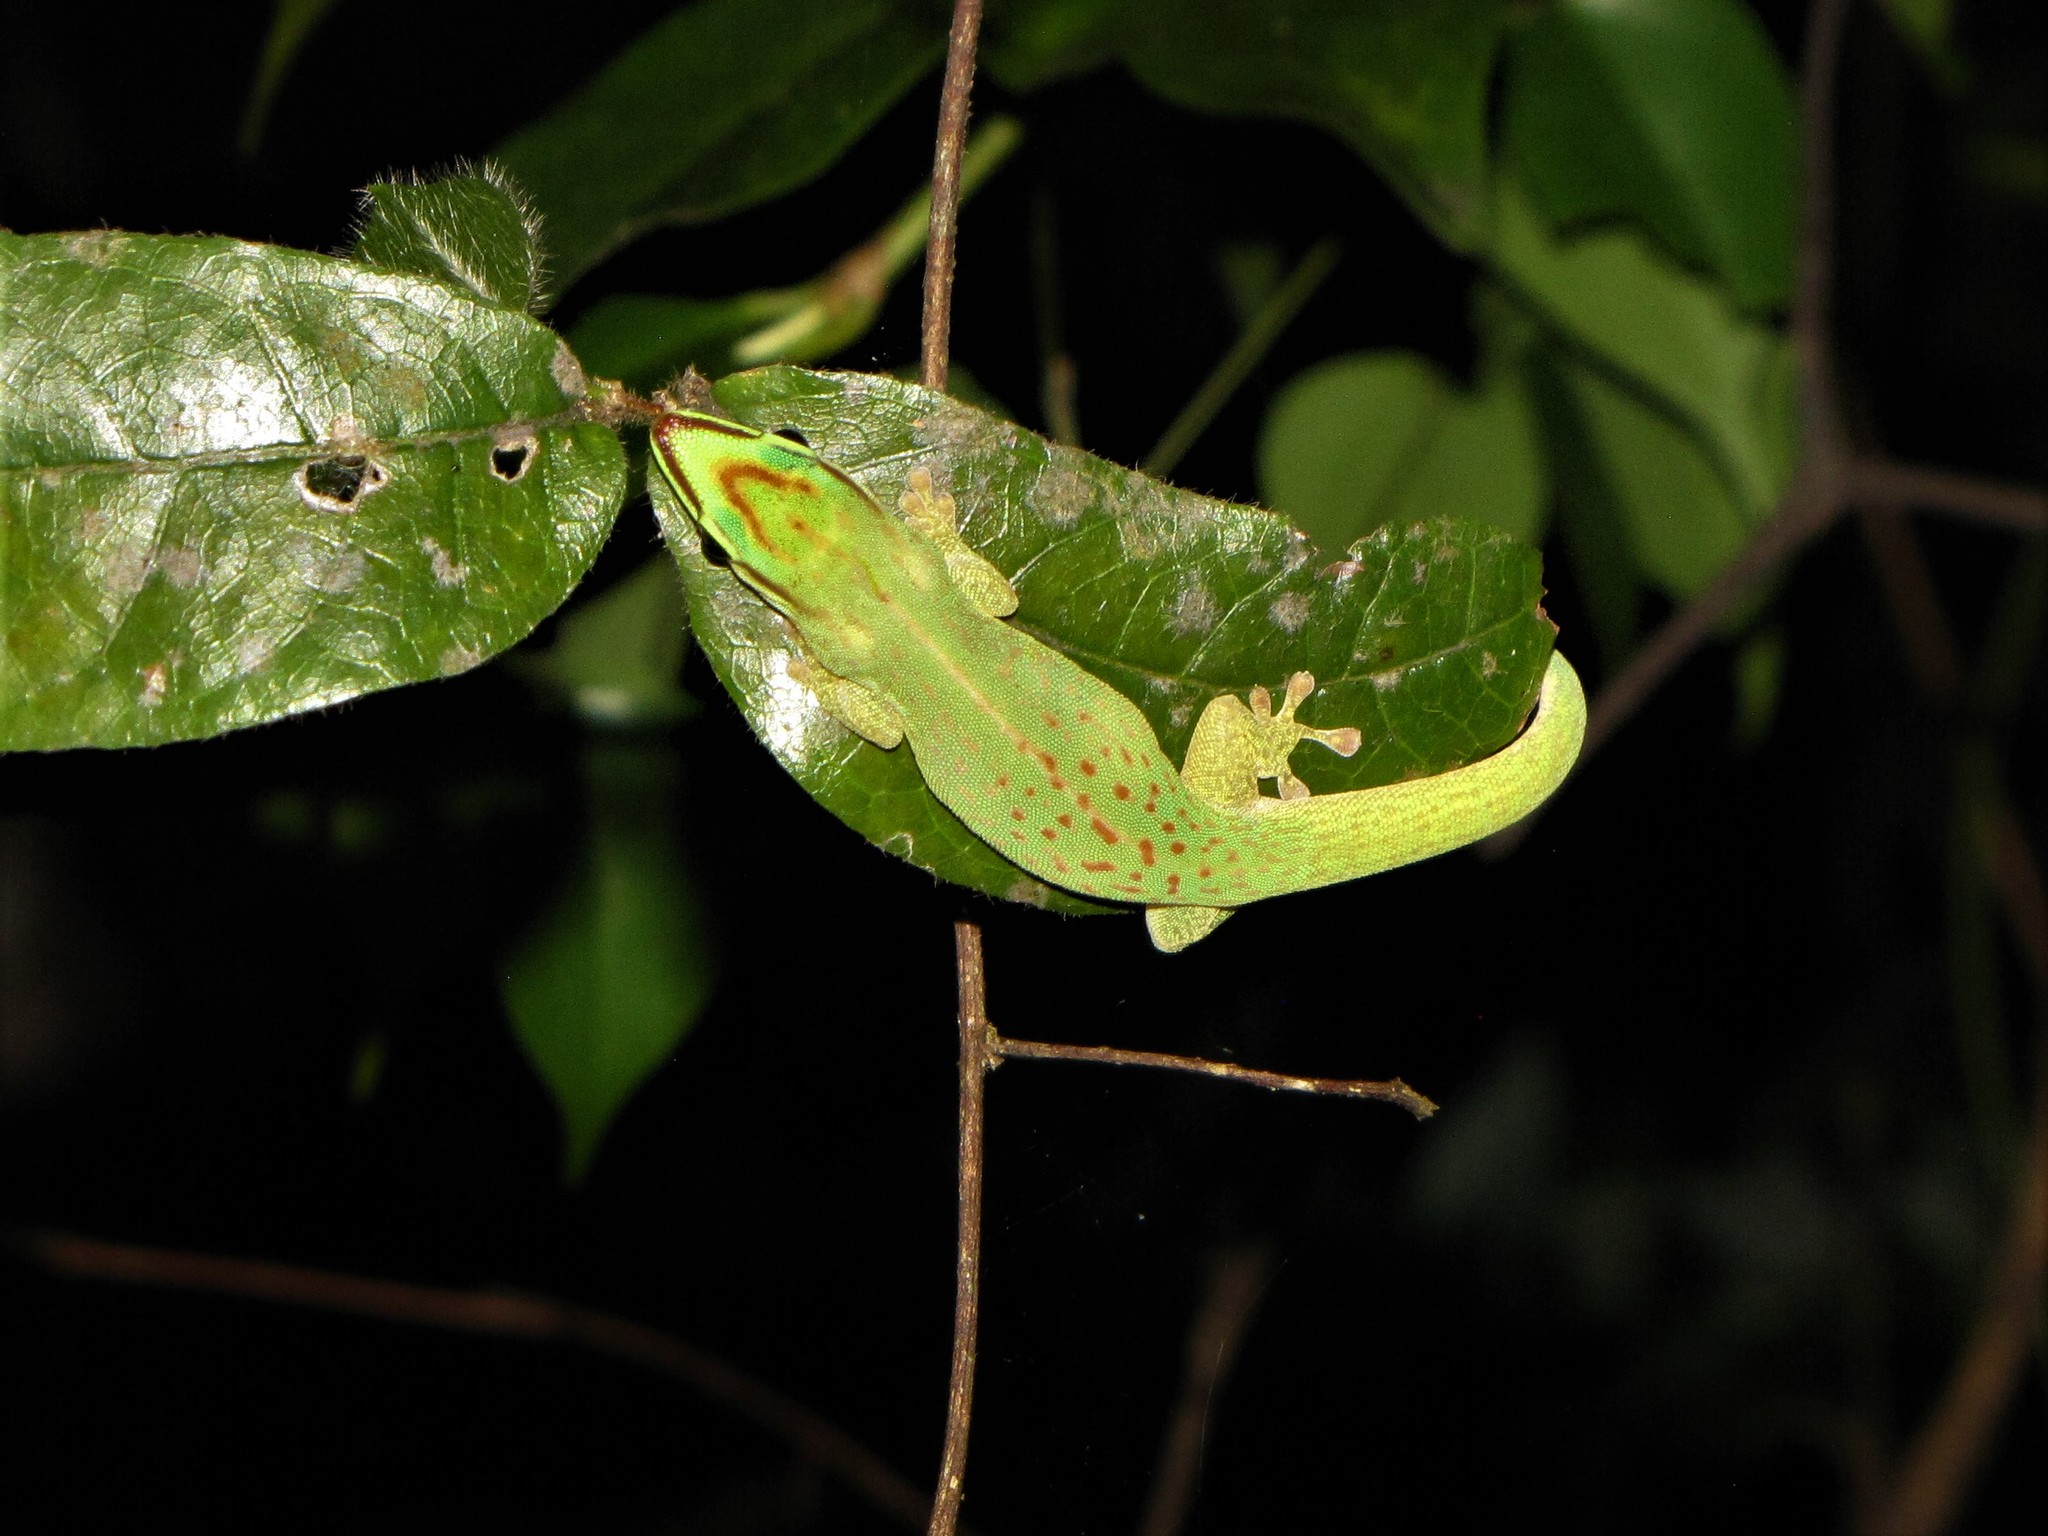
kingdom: Animalia
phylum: Chordata
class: Squamata
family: Gekkonidae
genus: Phelsuma
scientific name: Phelsuma seippi
